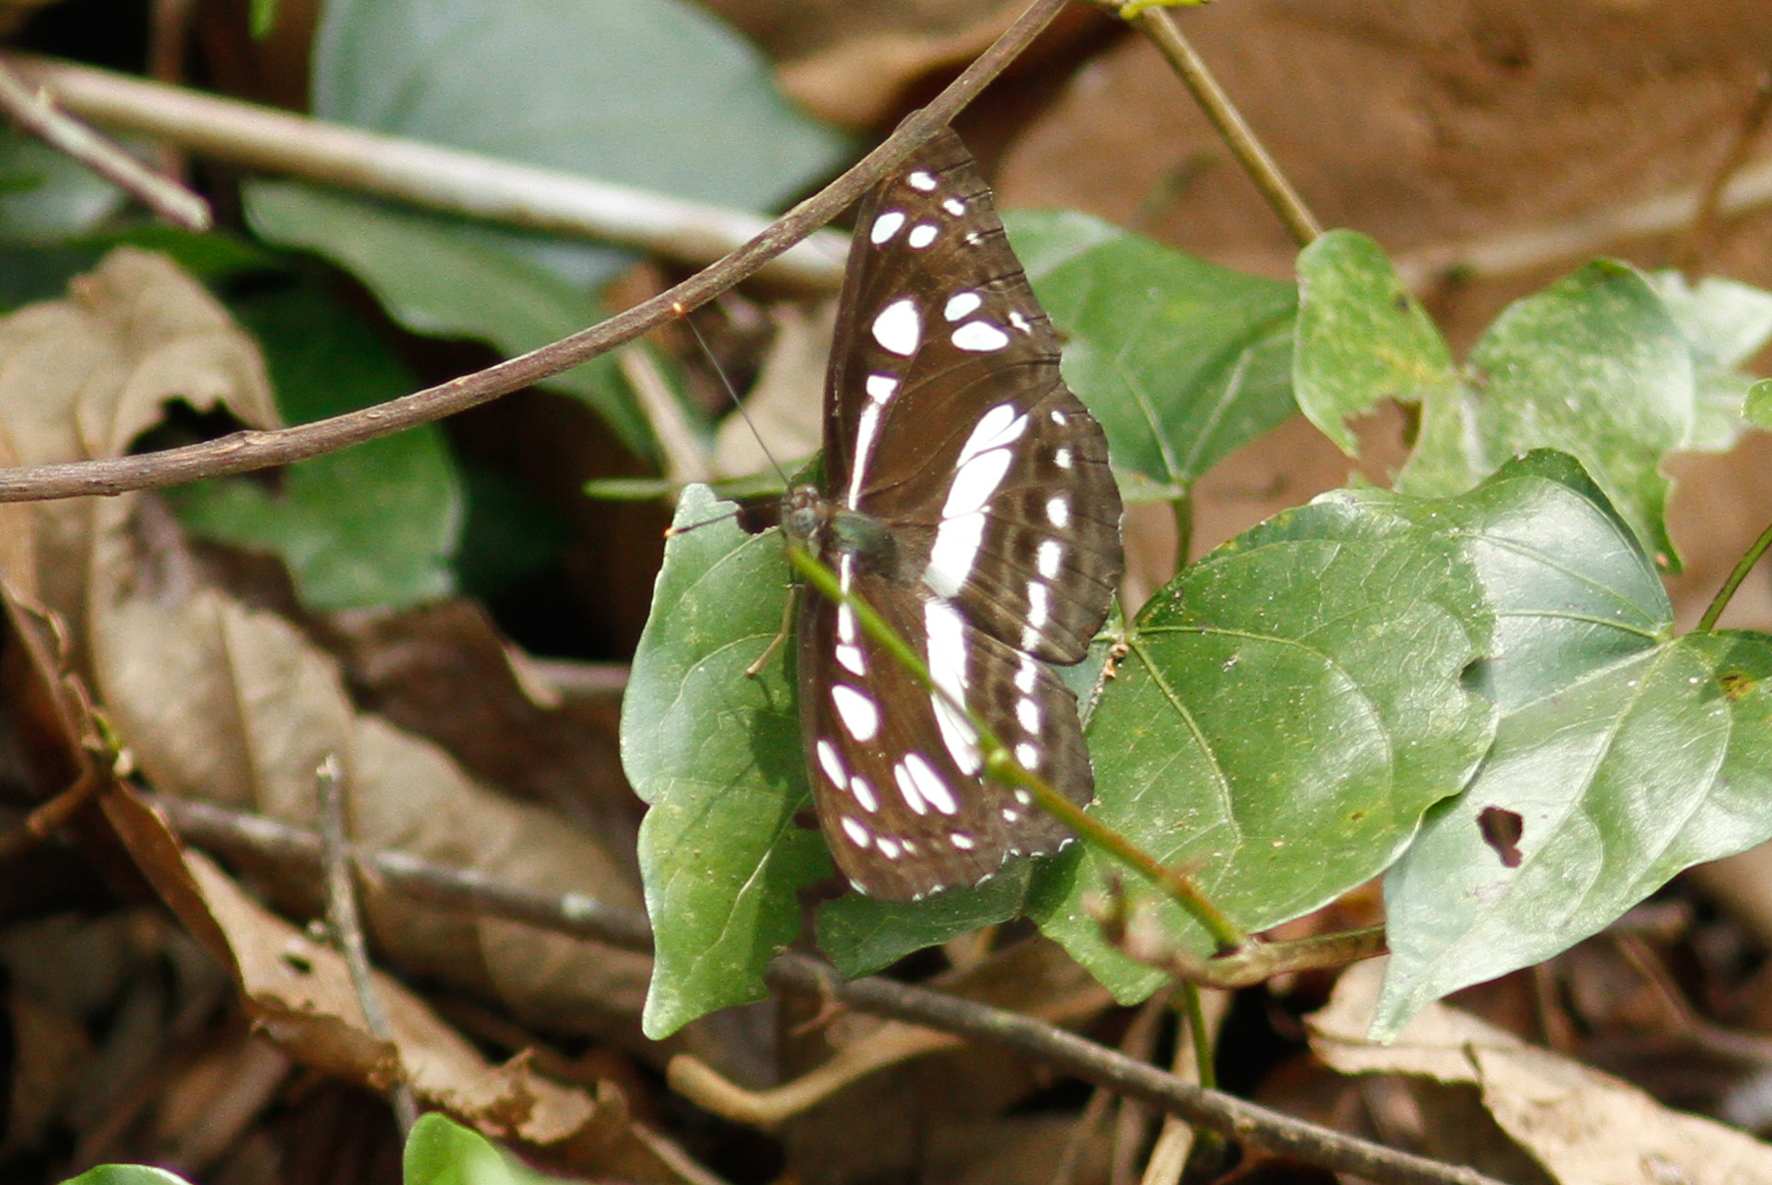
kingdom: Animalia
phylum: Arthropoda
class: Insecta
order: Lepidoptera
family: Nymphalidae
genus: Phaedyma
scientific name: Phaedyma columella
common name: Short banded sailer
